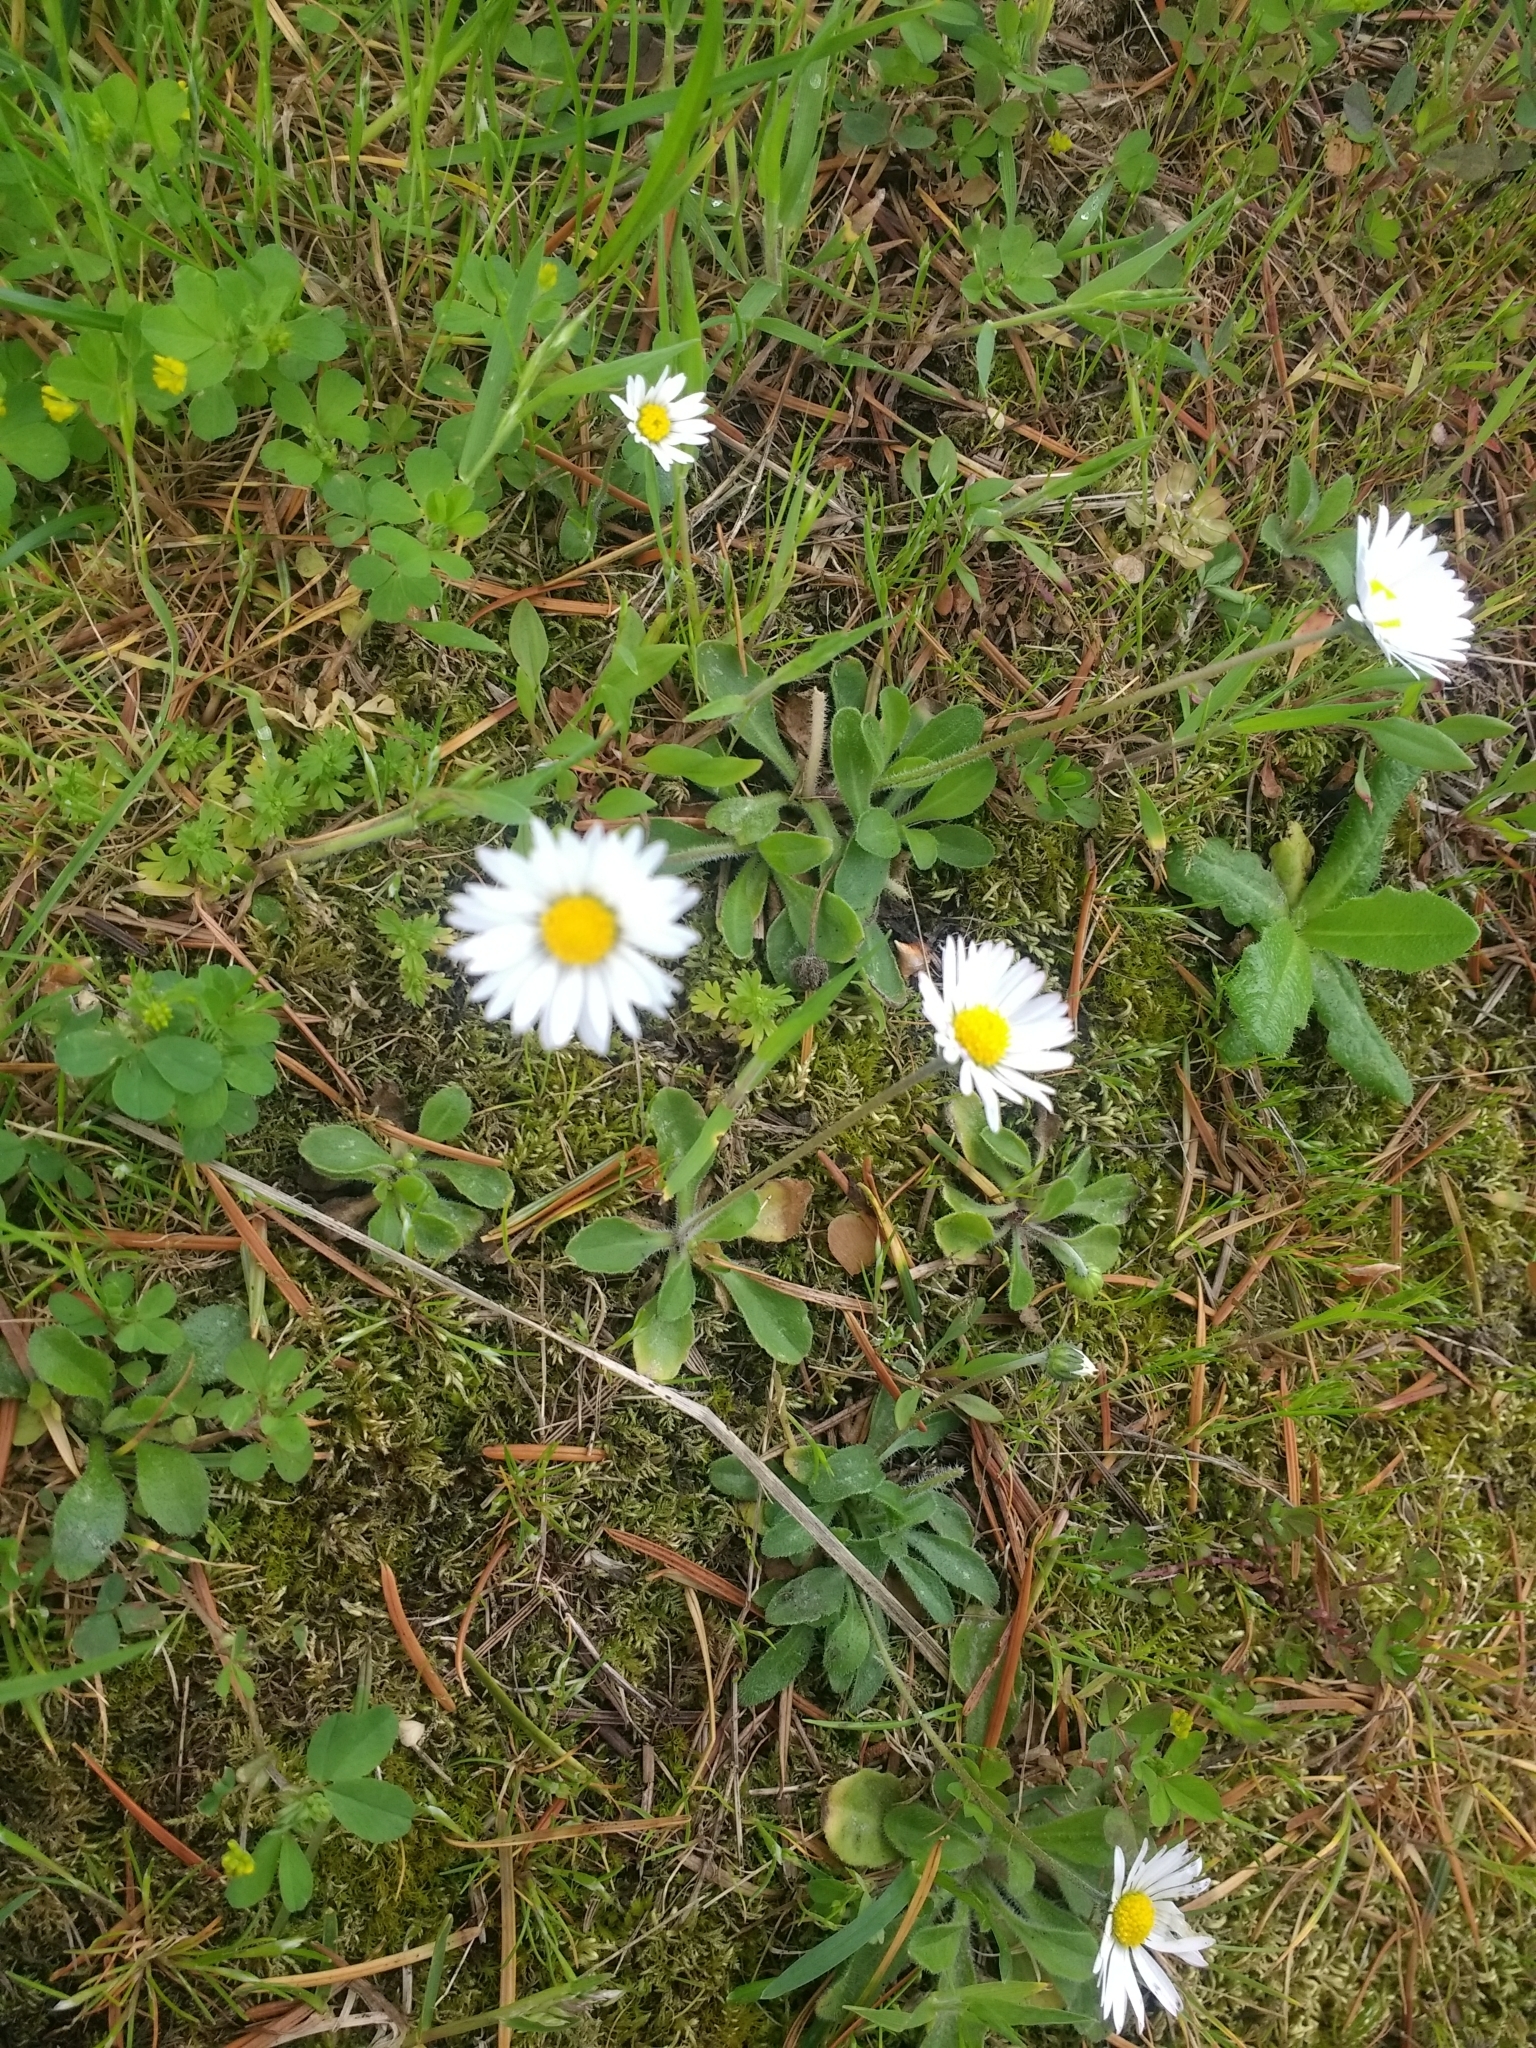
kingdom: Plantae
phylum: Tracheophyta
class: Magnoliopsida
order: Asterales
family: Asteraceae
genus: Bellis
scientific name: Bellis perennis
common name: Lawndaisy
